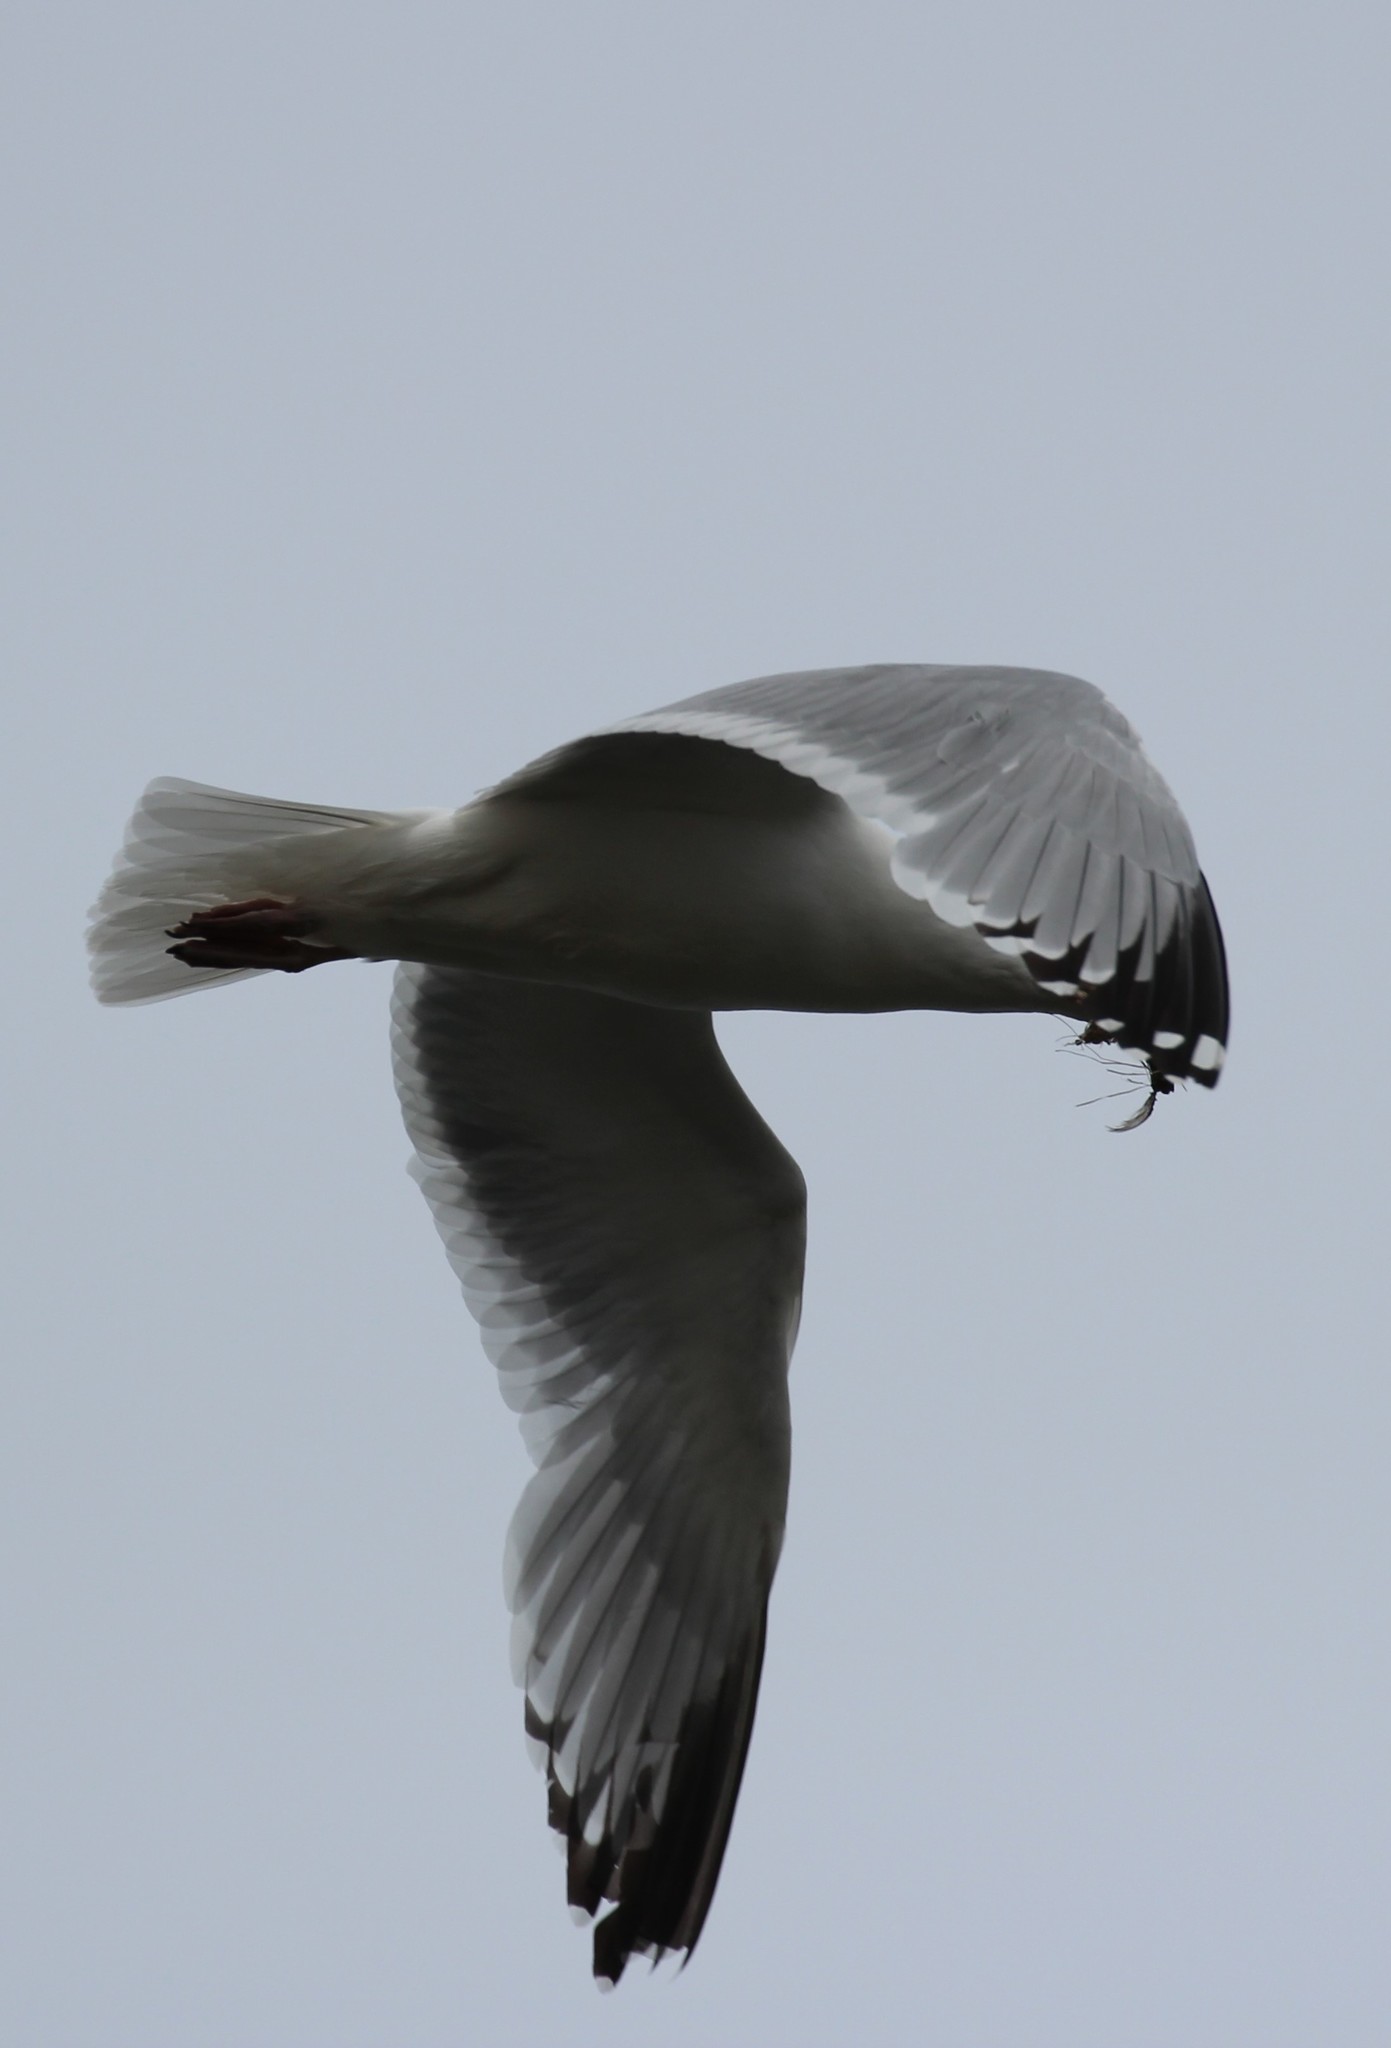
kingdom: Animalia
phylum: Chordata
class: Aves
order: Charadriiformes
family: Laridae
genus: Larus
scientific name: Larus delawarensis
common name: Ring-billed gull
